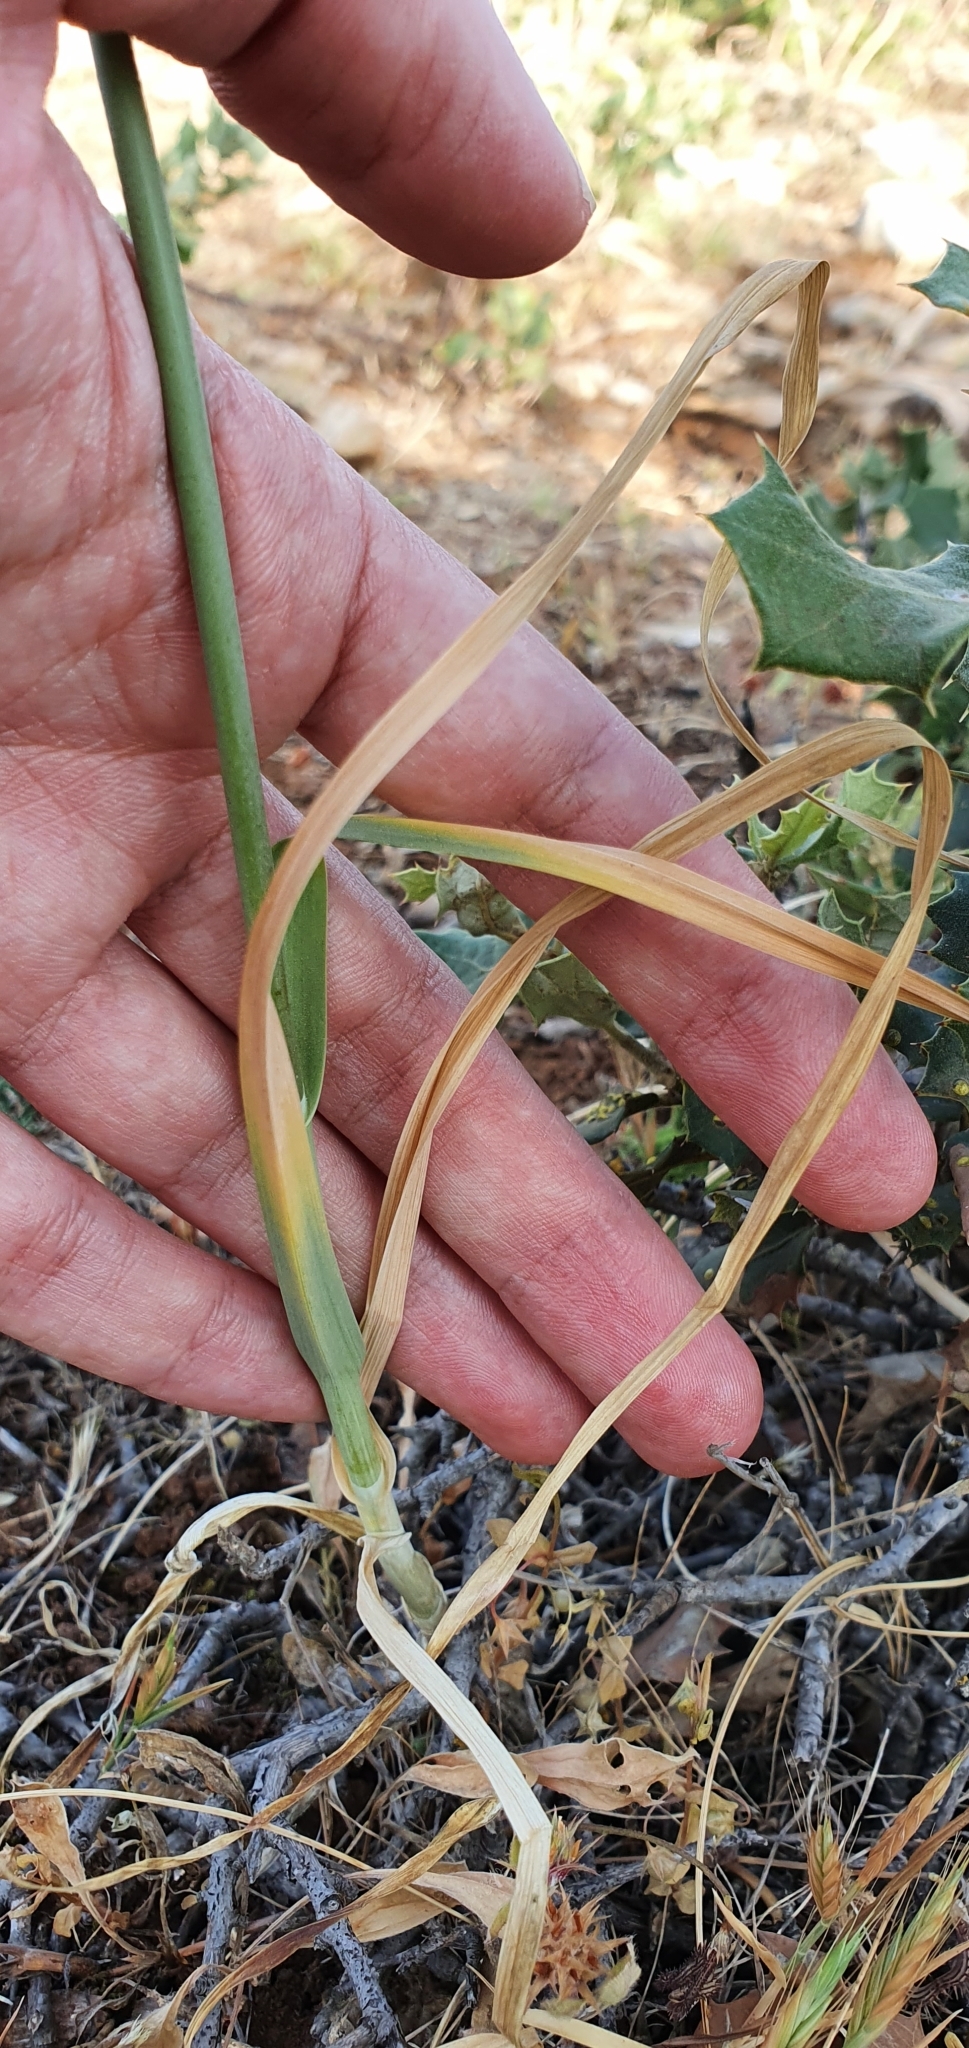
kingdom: Plantae
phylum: Tracheophyta
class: Liliopsida
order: Asparagales
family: Amaryllidaceae
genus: Allium
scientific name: Allium ampeloprasum
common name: Wild leek
